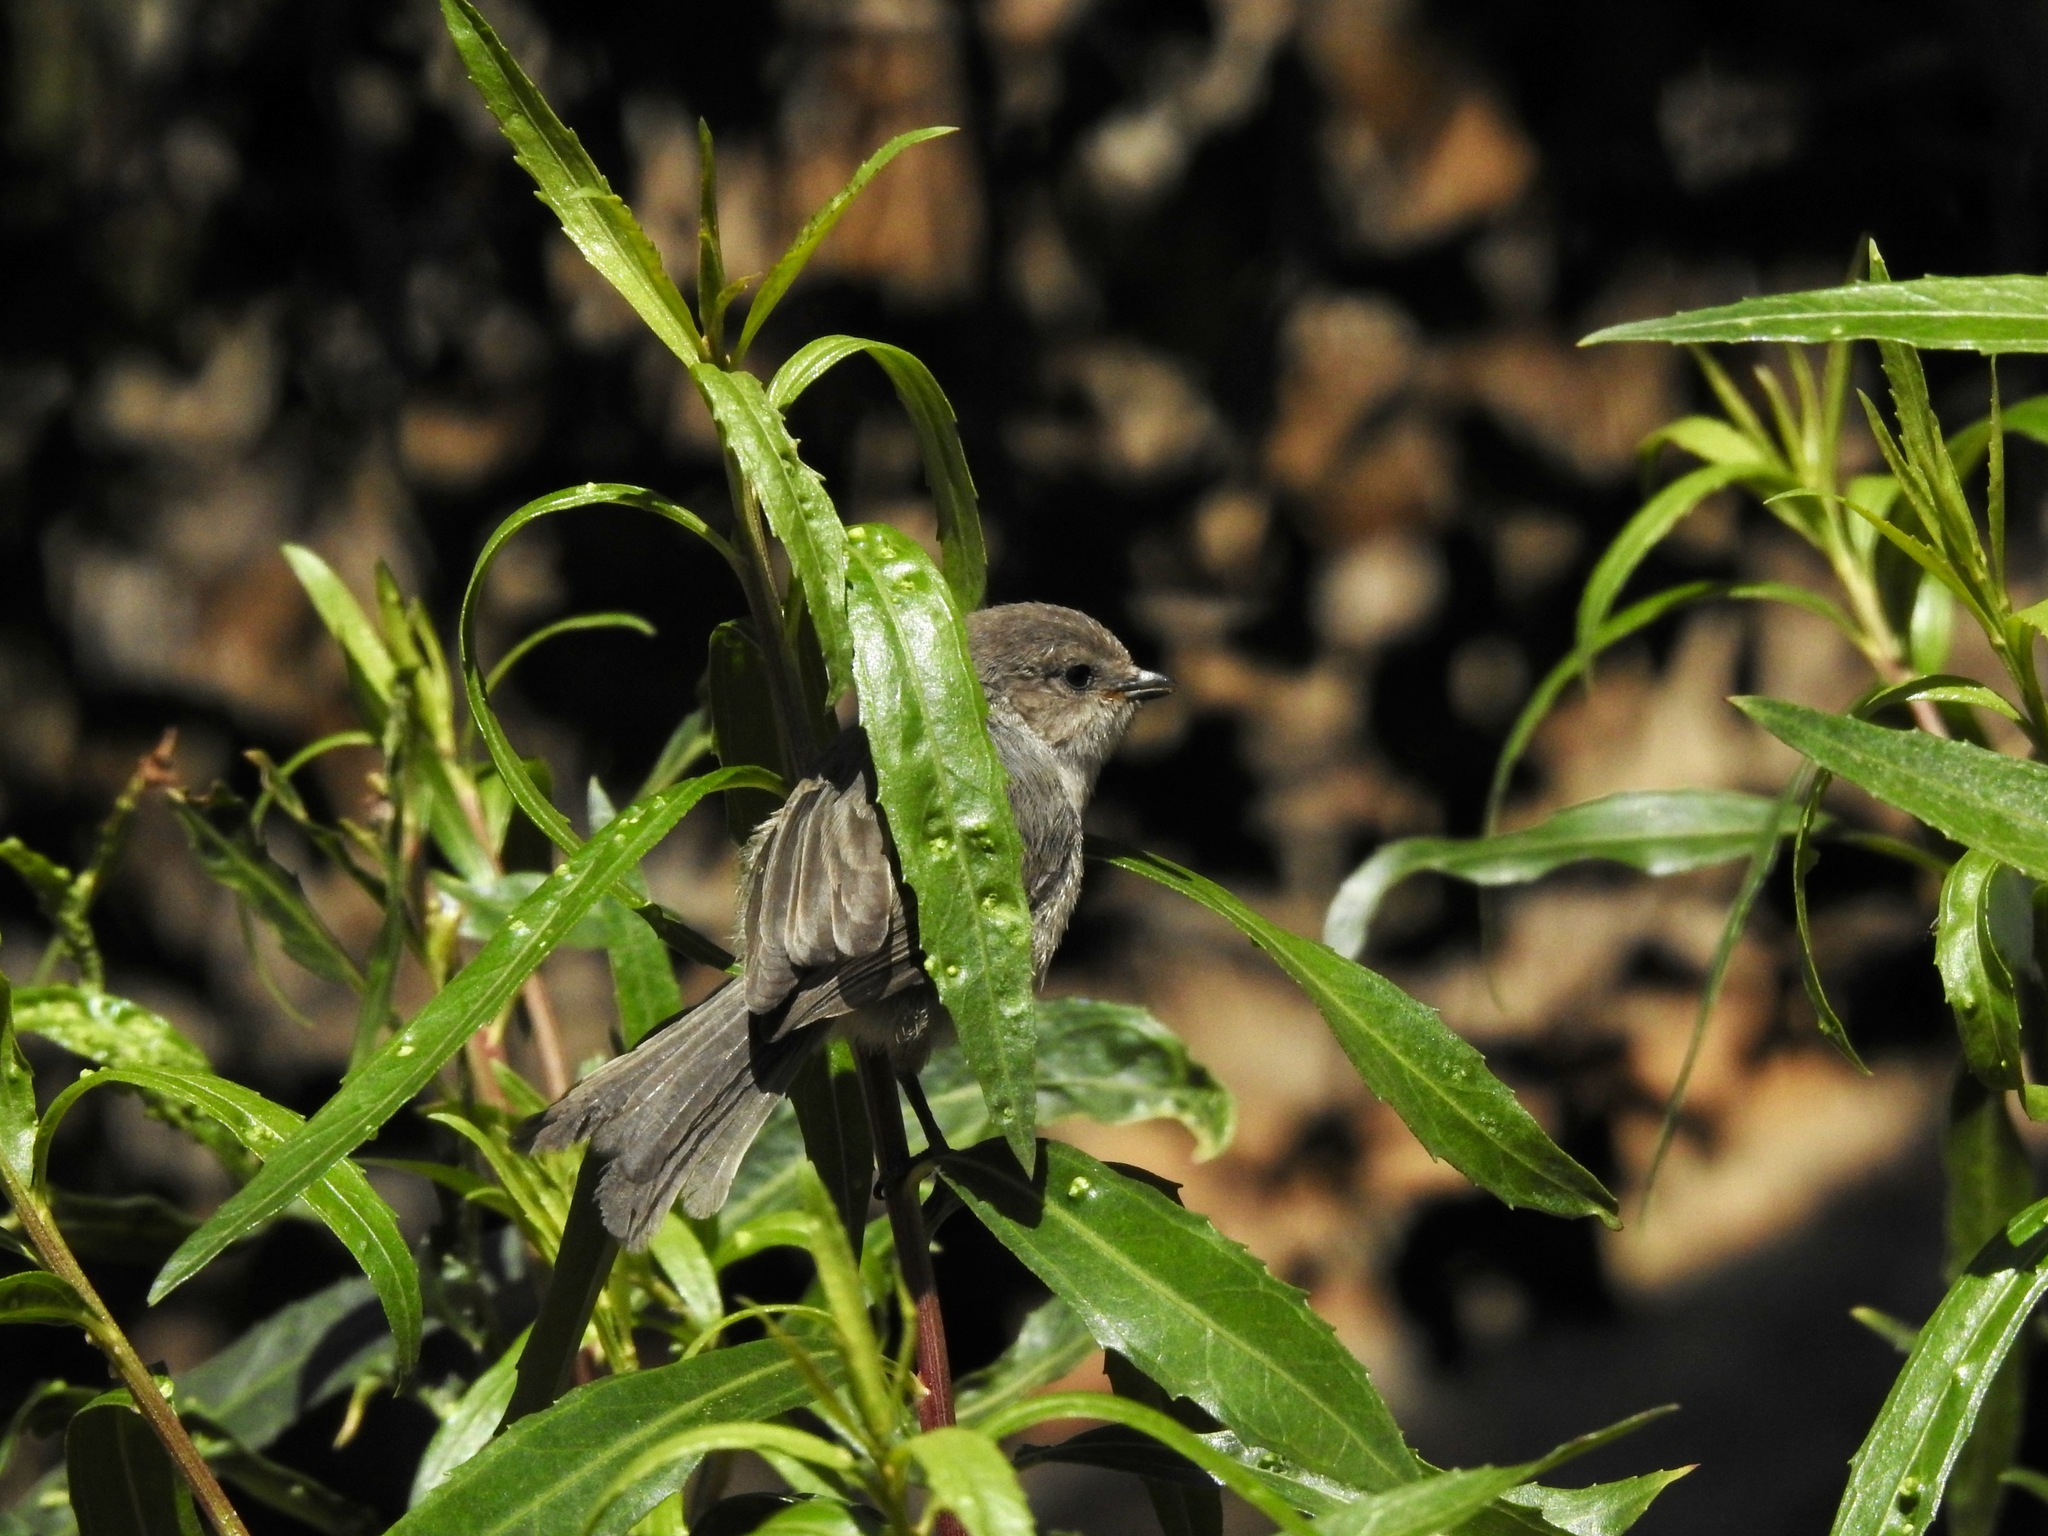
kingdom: Animalia
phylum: Chordata
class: Aves
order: Passeriformes
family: Aegithalidae
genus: Psaltriparus
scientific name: Psaltriparus minimus
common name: American bushtit
